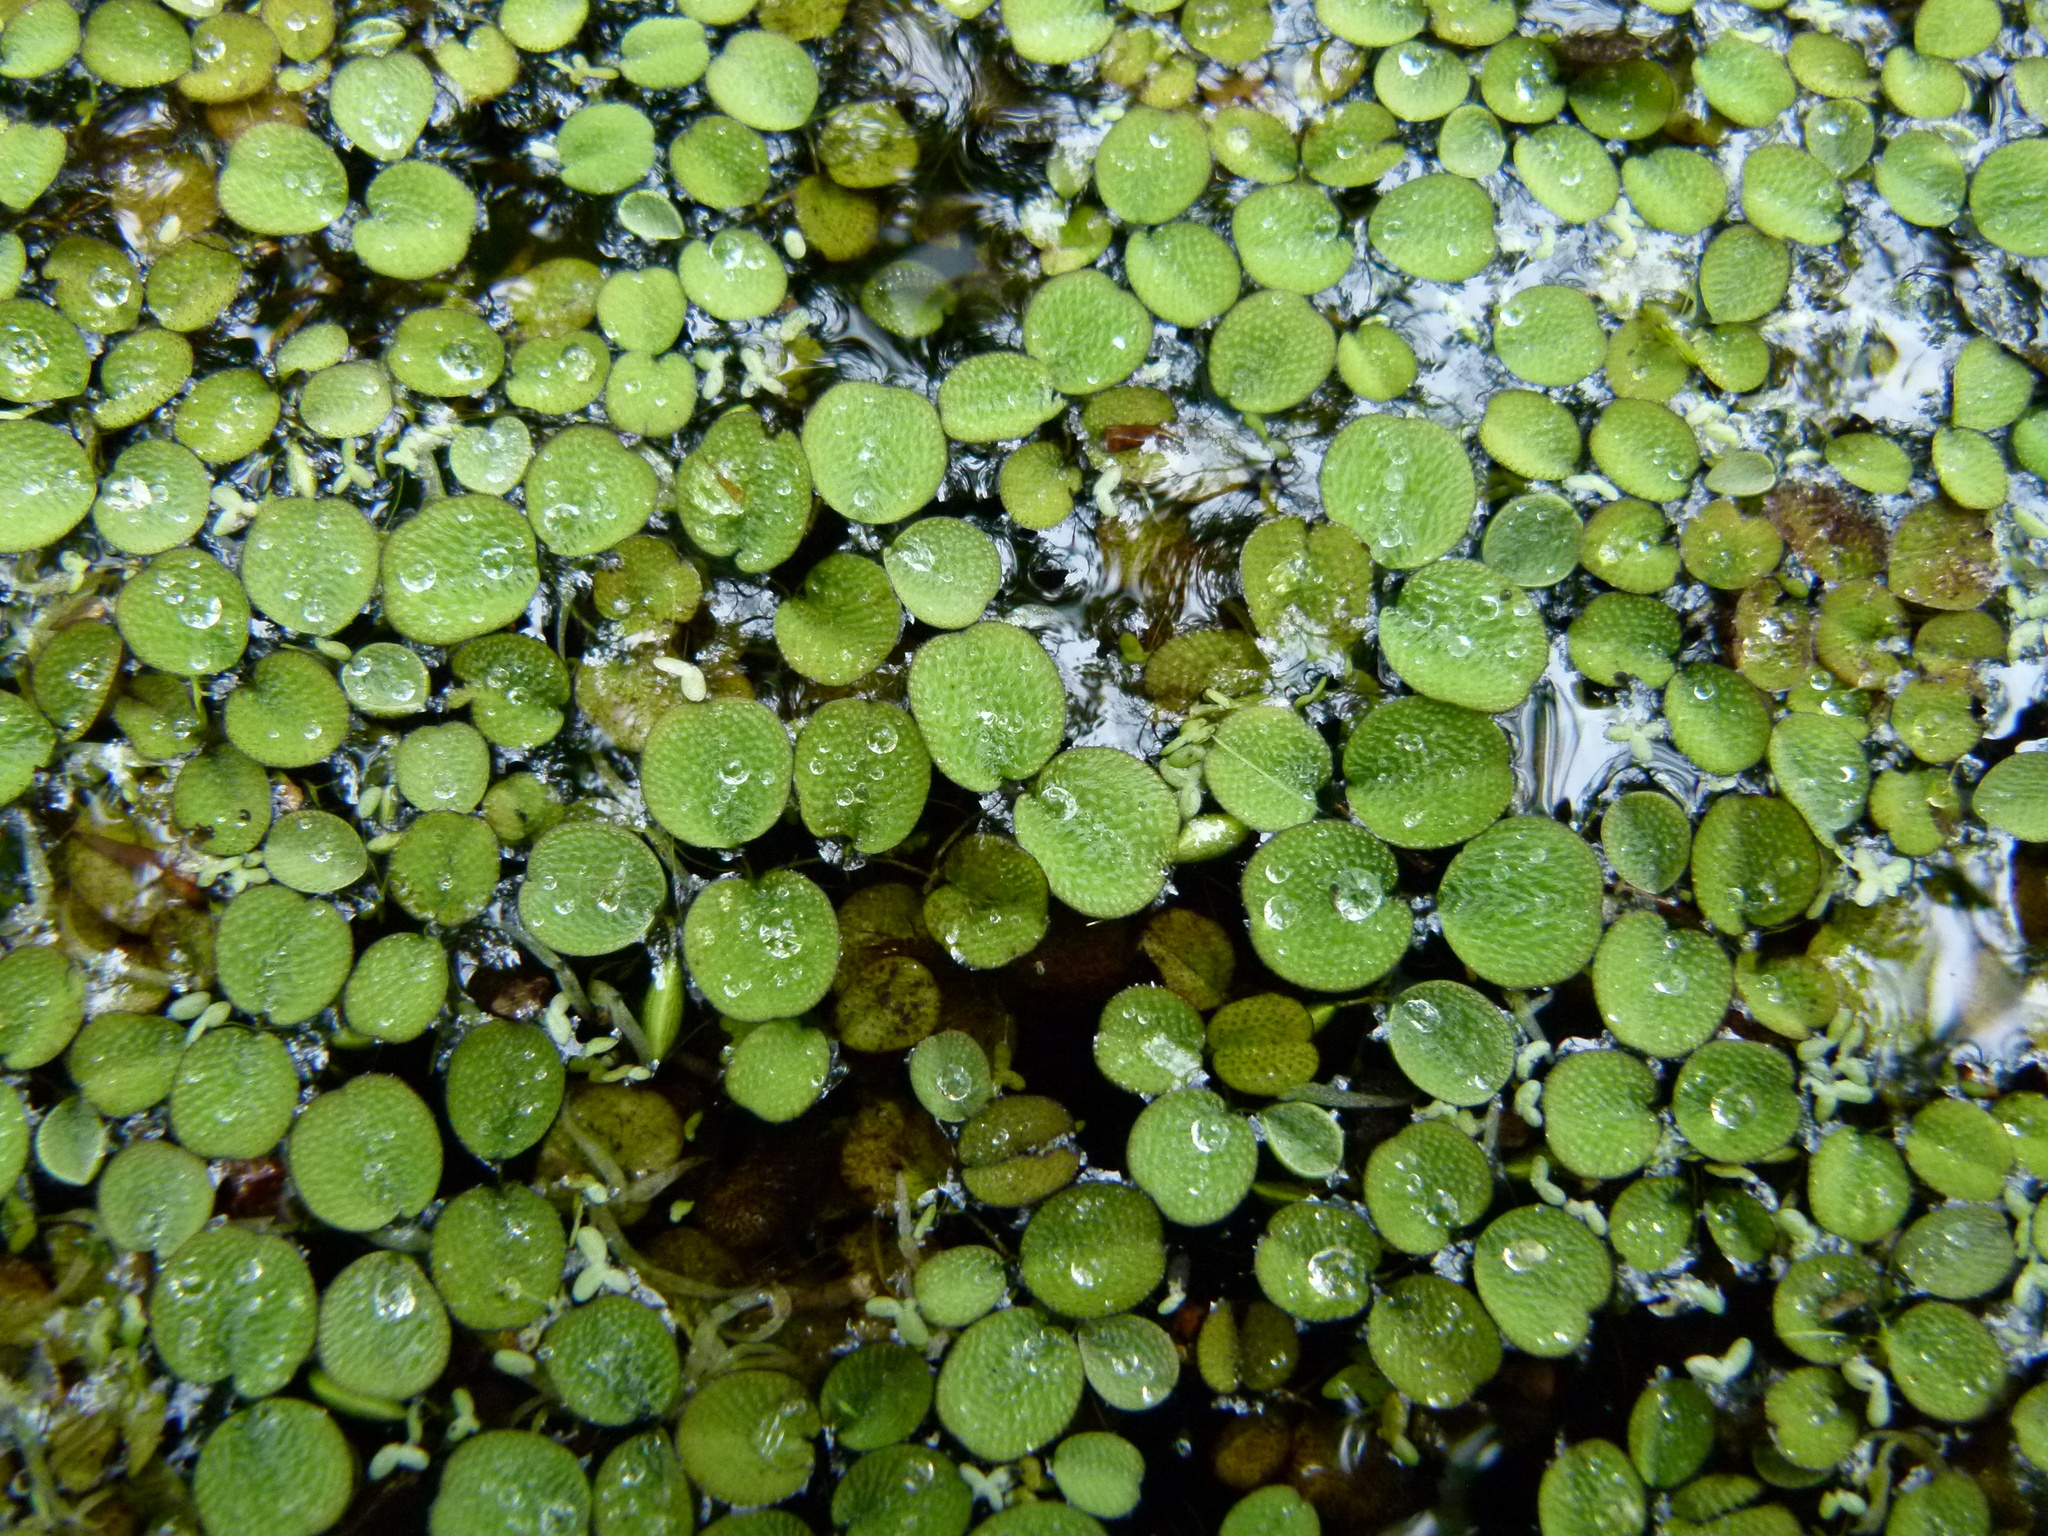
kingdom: Plantae
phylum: Tracheophyta
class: Polypodiopsida
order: Salviniales
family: Salviniaceae
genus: Salvinia
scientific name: Salvinia minima
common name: Water spangles
